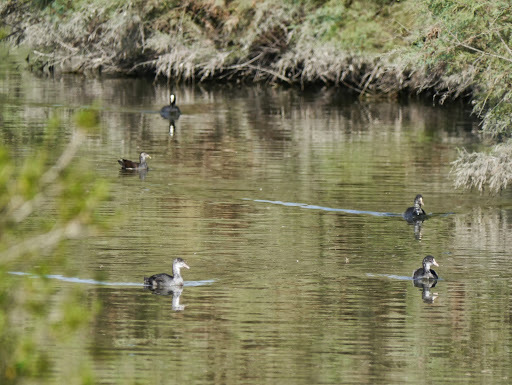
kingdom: Animalia
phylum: Chordata
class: Aves
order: Gruiformes
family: Rallidae
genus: Fulica
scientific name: Fulica atra
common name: Eurasian coot
